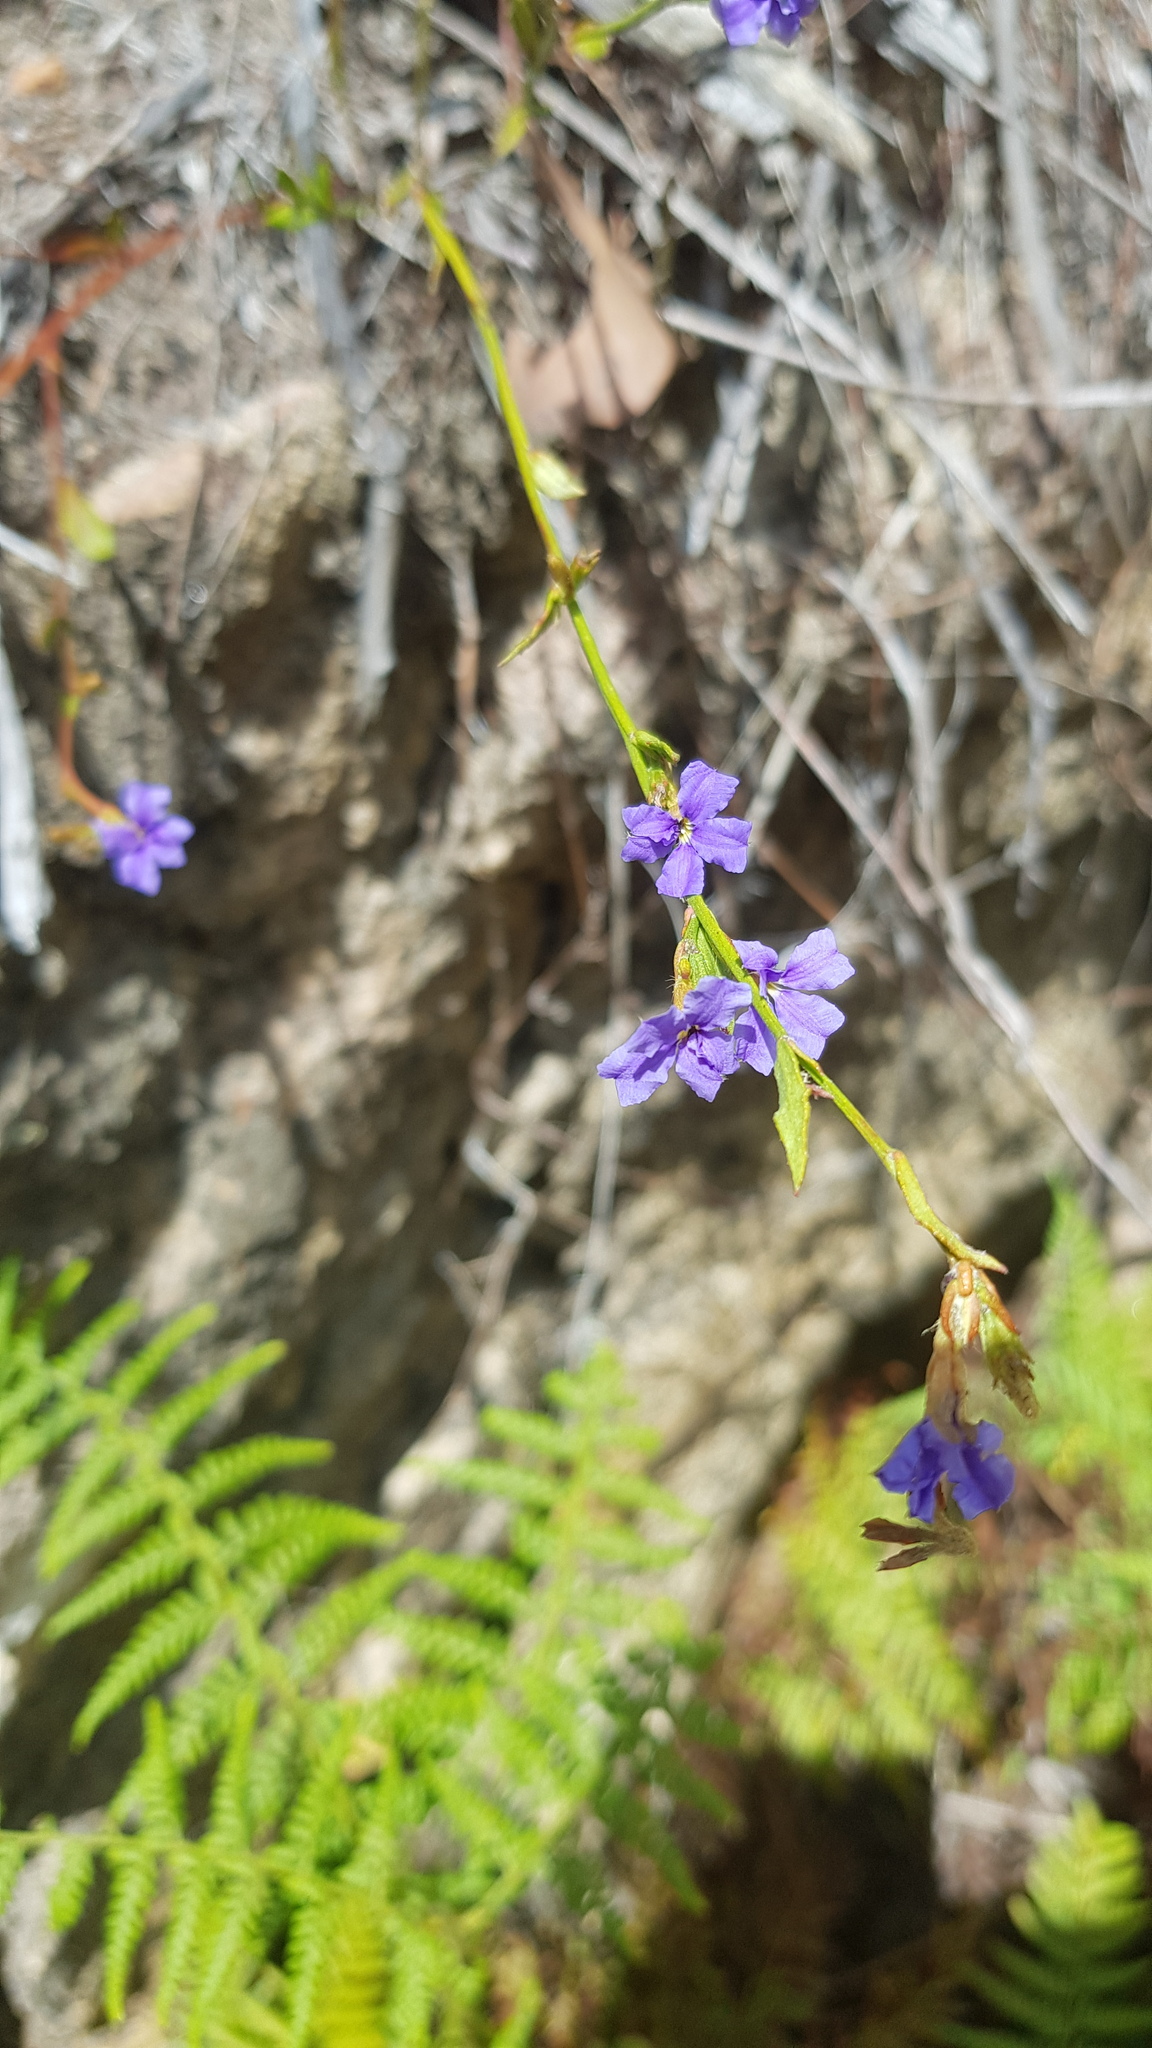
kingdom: Plantae
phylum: Tracheophyta
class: Magnoliopsida
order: Asterales
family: Goodeniaceae
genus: Dampiera
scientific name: Dampiera stricta
